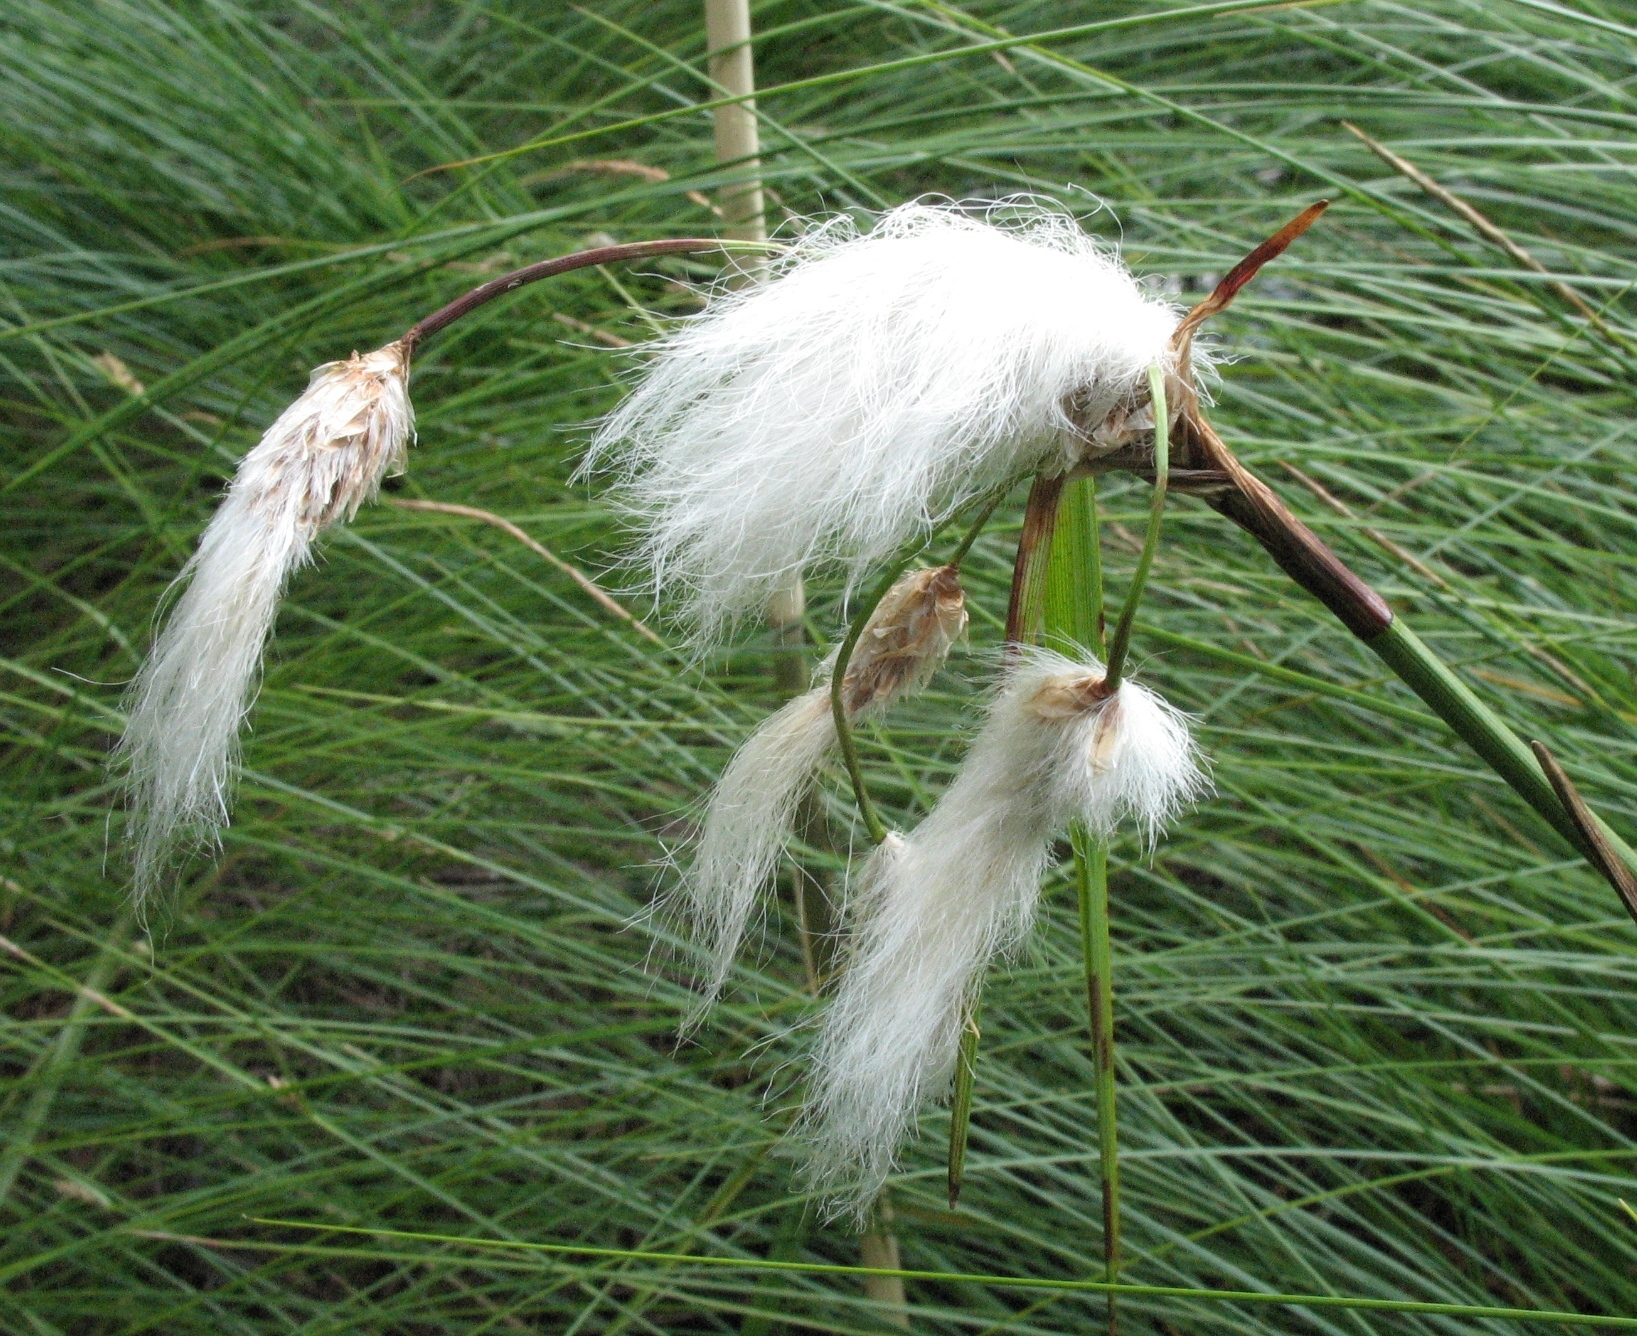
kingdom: Plantae
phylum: Tracheophyta
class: Liliopsida
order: Poales
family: Cyperaceae
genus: Eriophorum
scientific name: Eriophorum angustifolium
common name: Common cottongrass
